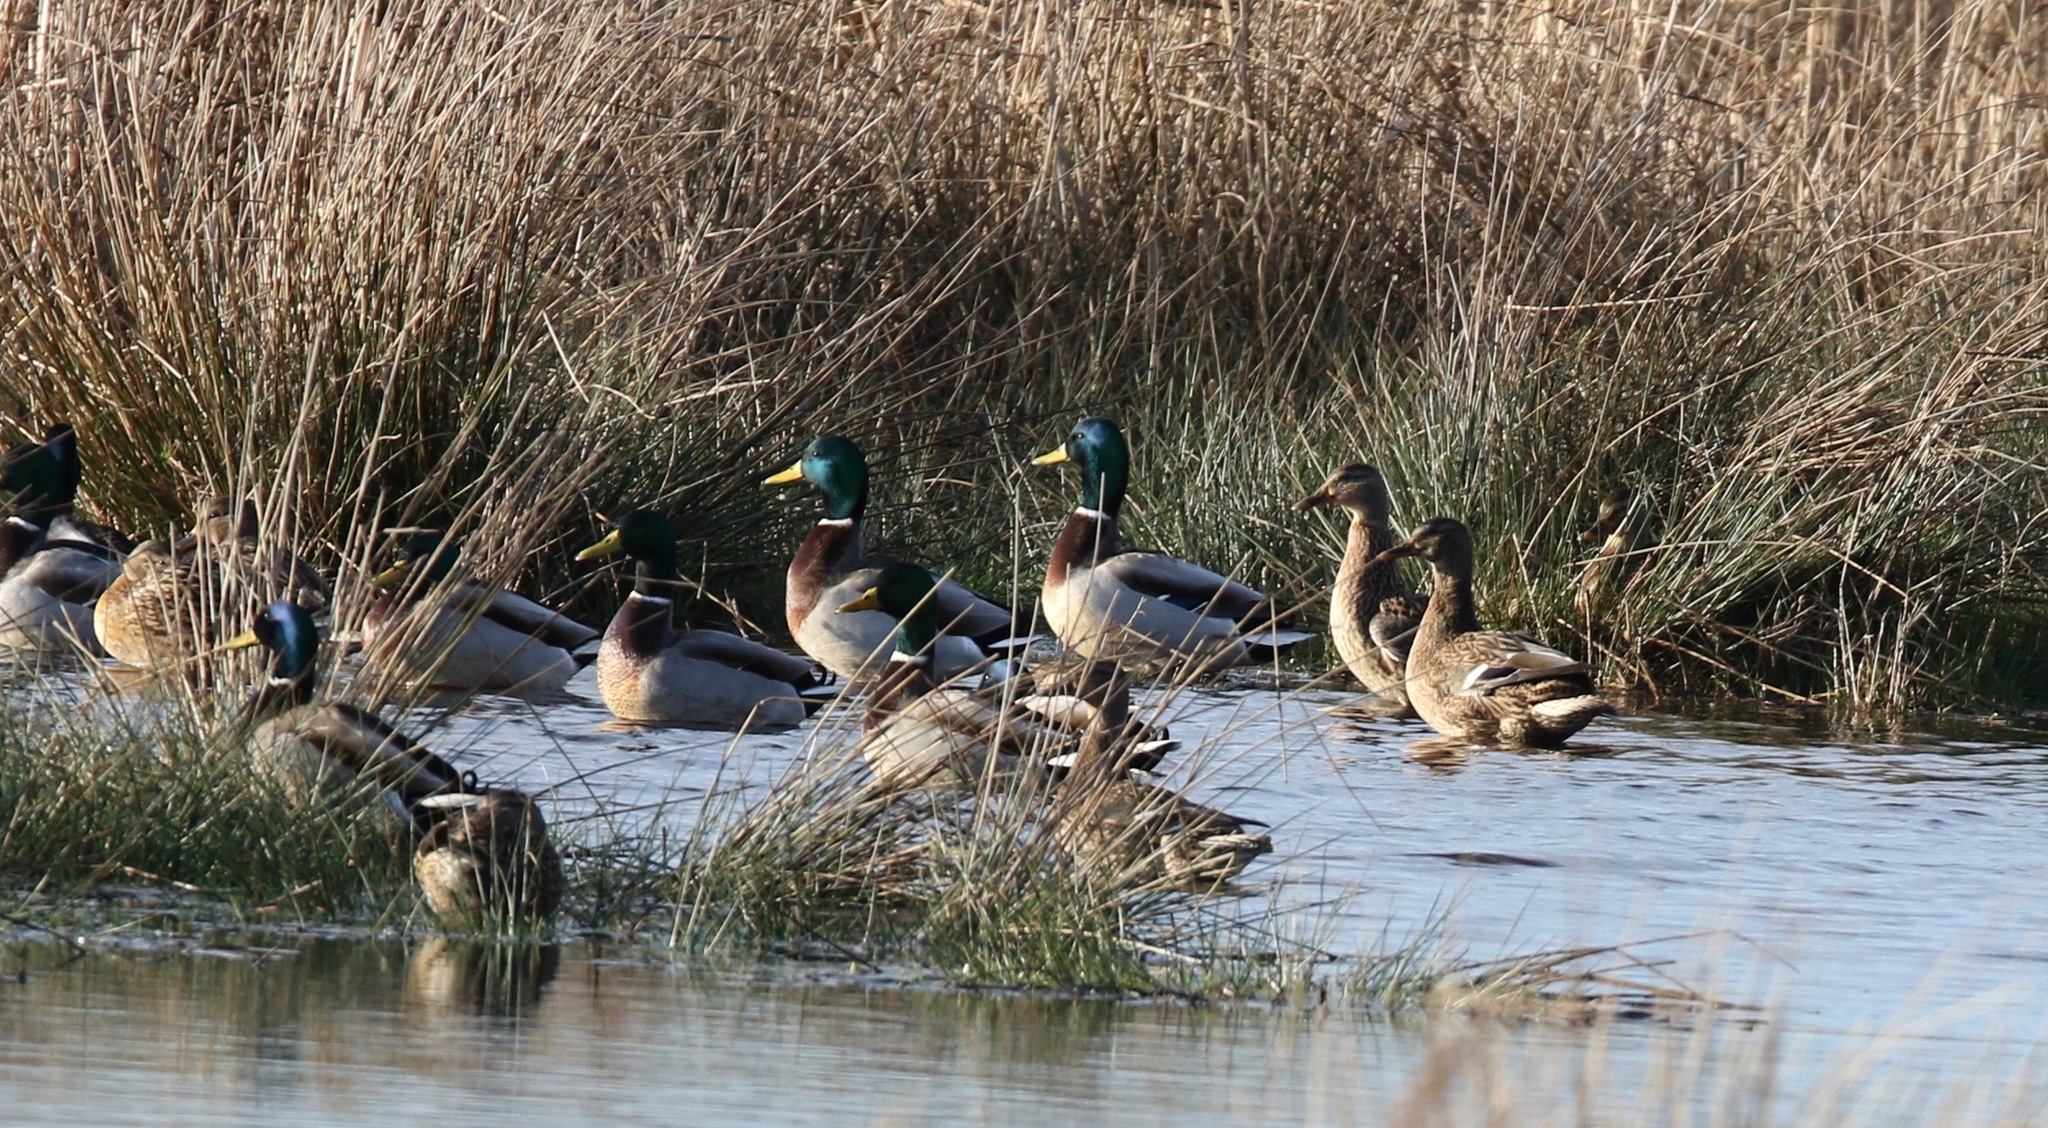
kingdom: Animalia
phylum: Chordata
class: Aves
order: Anseriformes
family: Anatidae
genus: Anas
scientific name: Anas platyrhynchos
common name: Mallard
